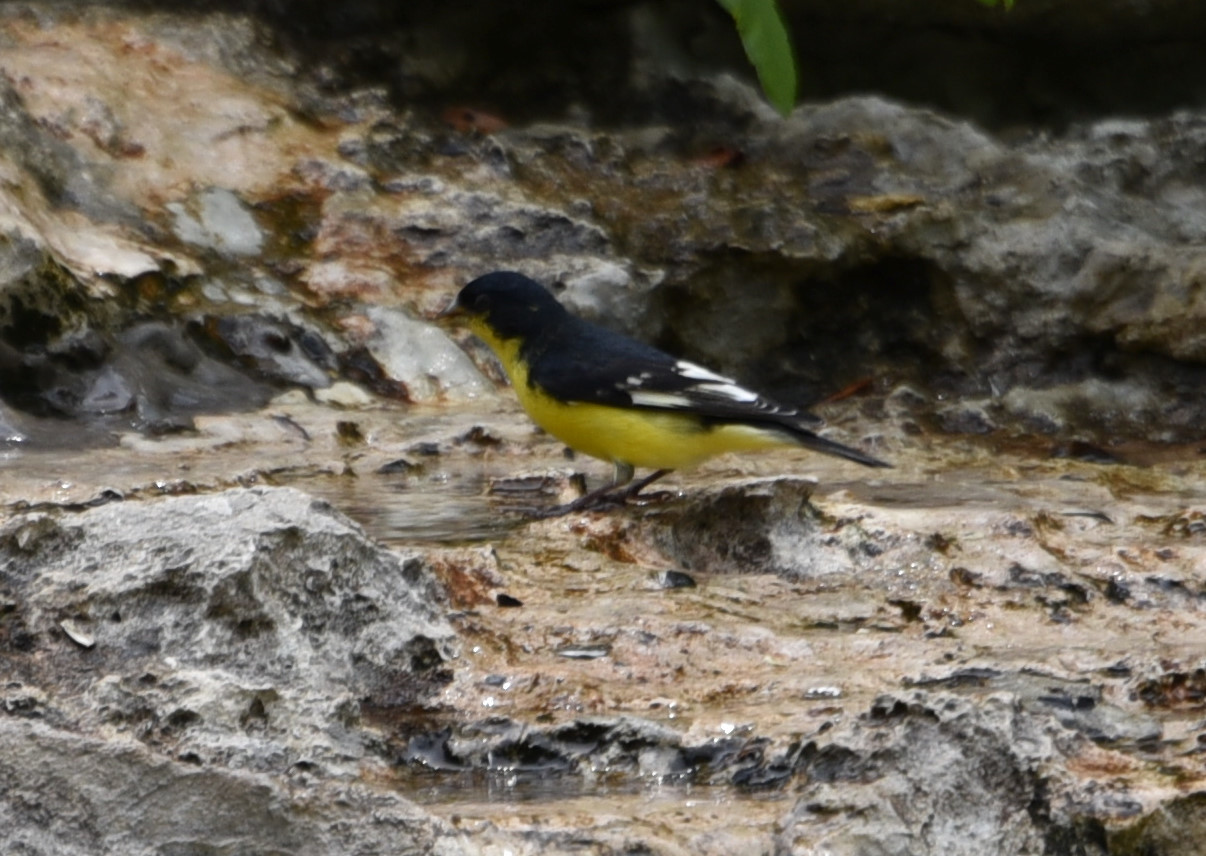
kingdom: Animalia
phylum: Chordata
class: Aves
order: Passeriformes
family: Fringillidae
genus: Spinus
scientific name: Spinus psaltria
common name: Lesser goldfinch
